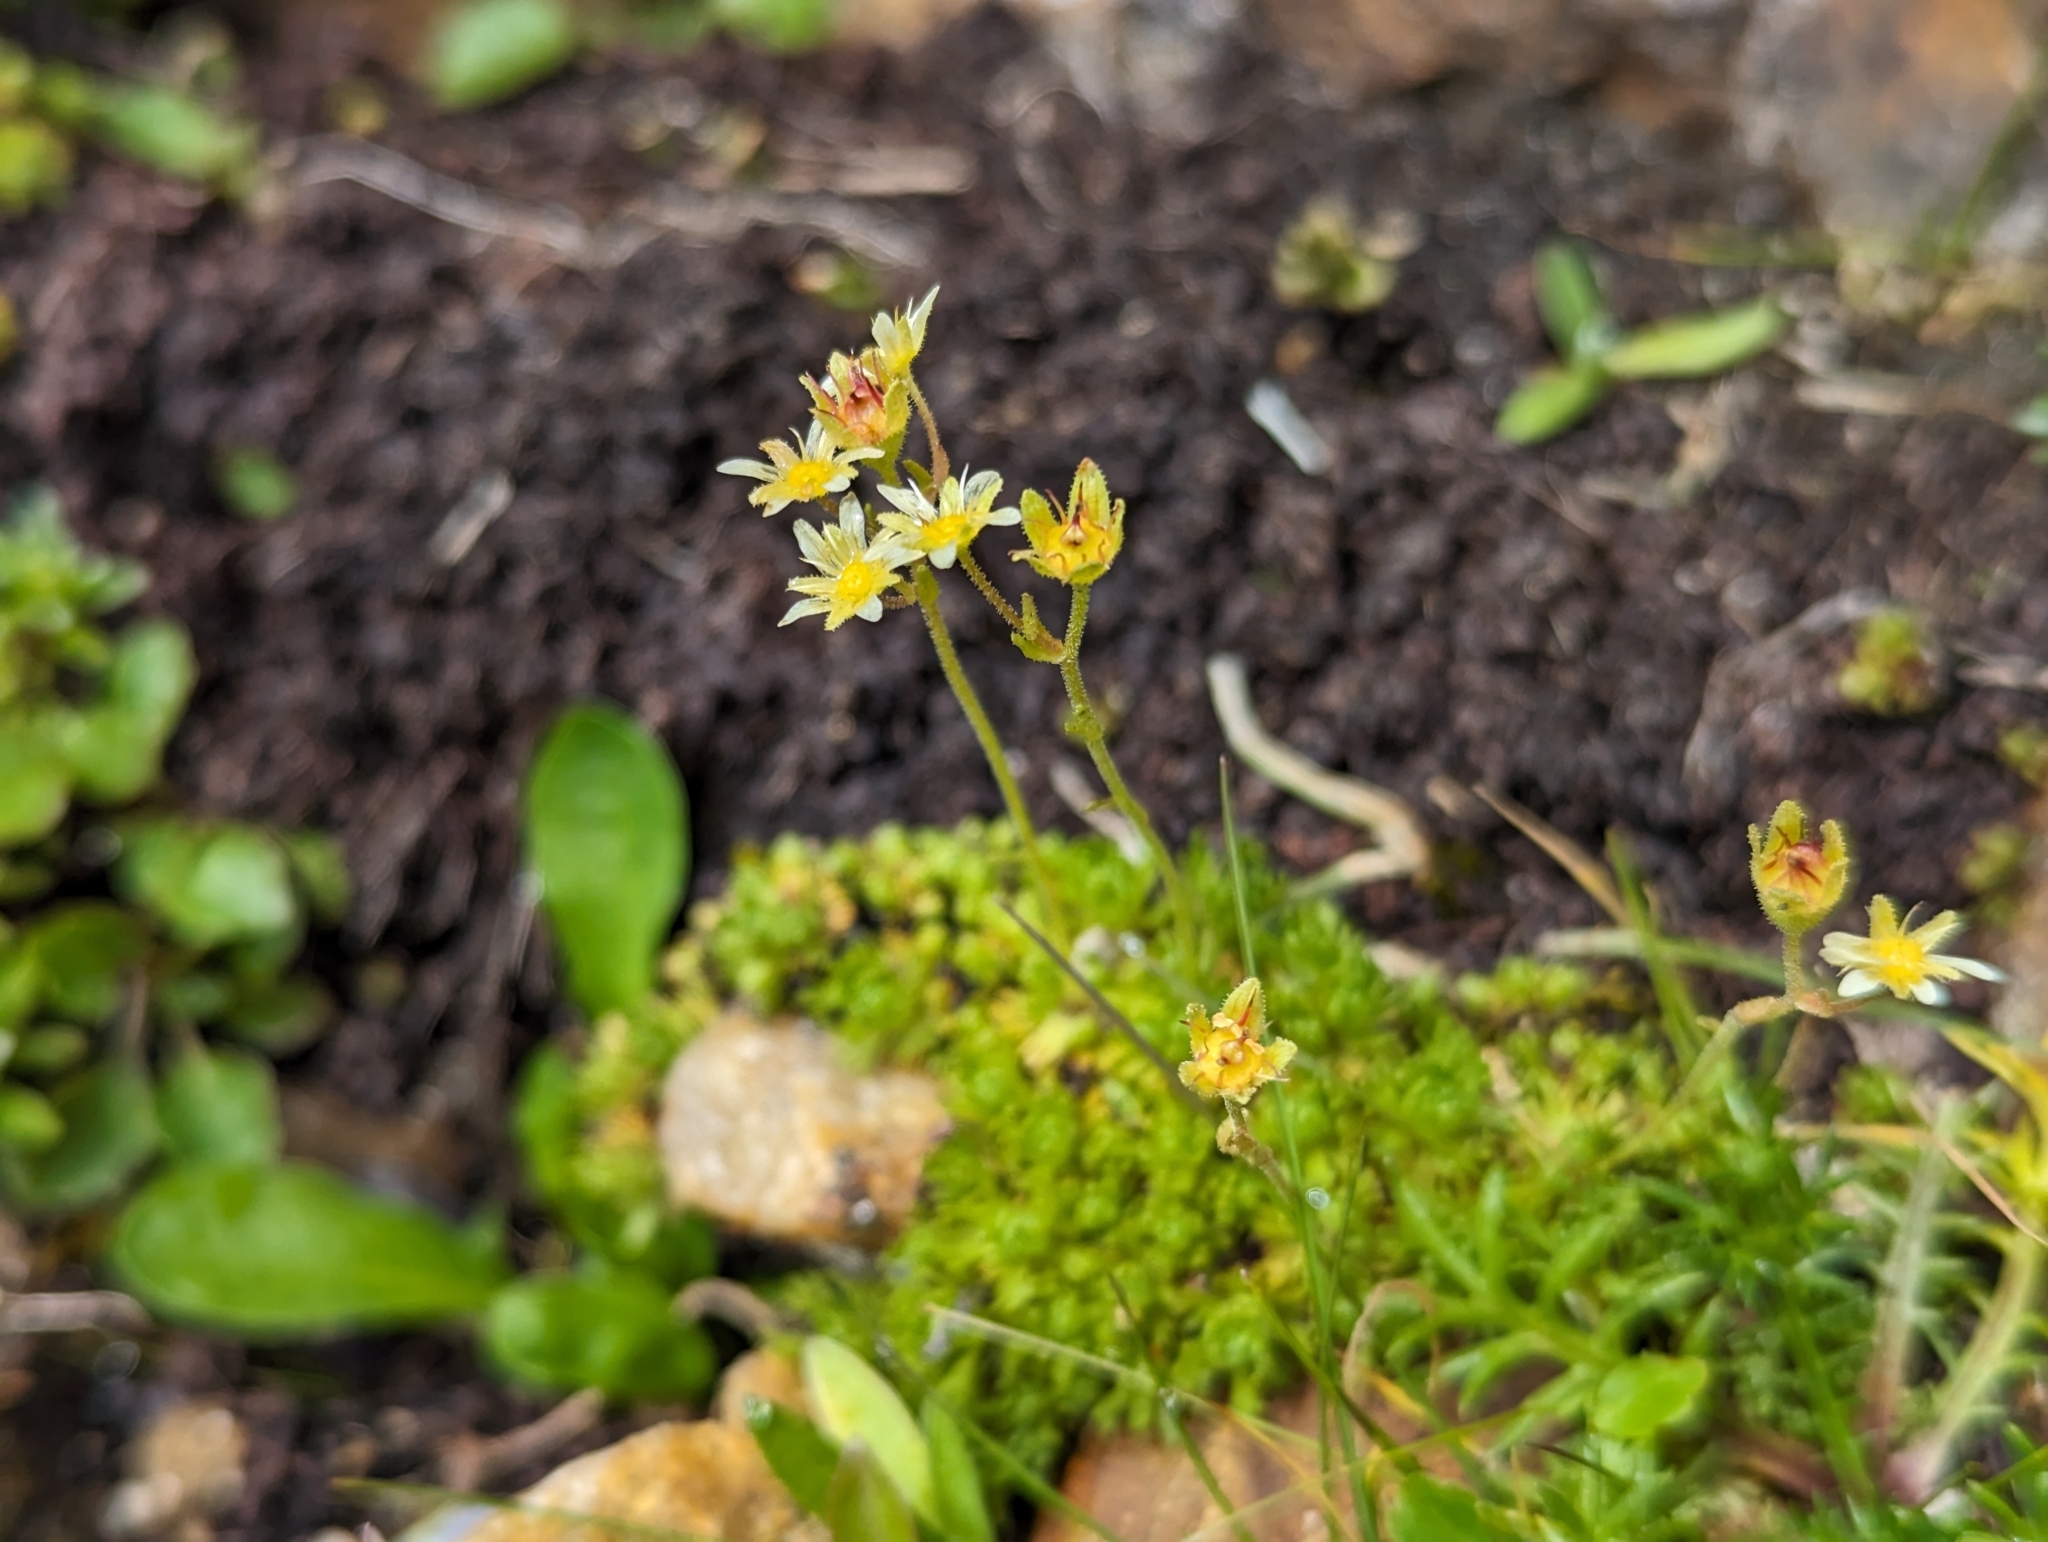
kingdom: Plantae
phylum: Tracheophyta
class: Magnoliopsida
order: Saxifragales
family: Saxifragaceae
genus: Saxifraga
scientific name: Saxifraga moschata
